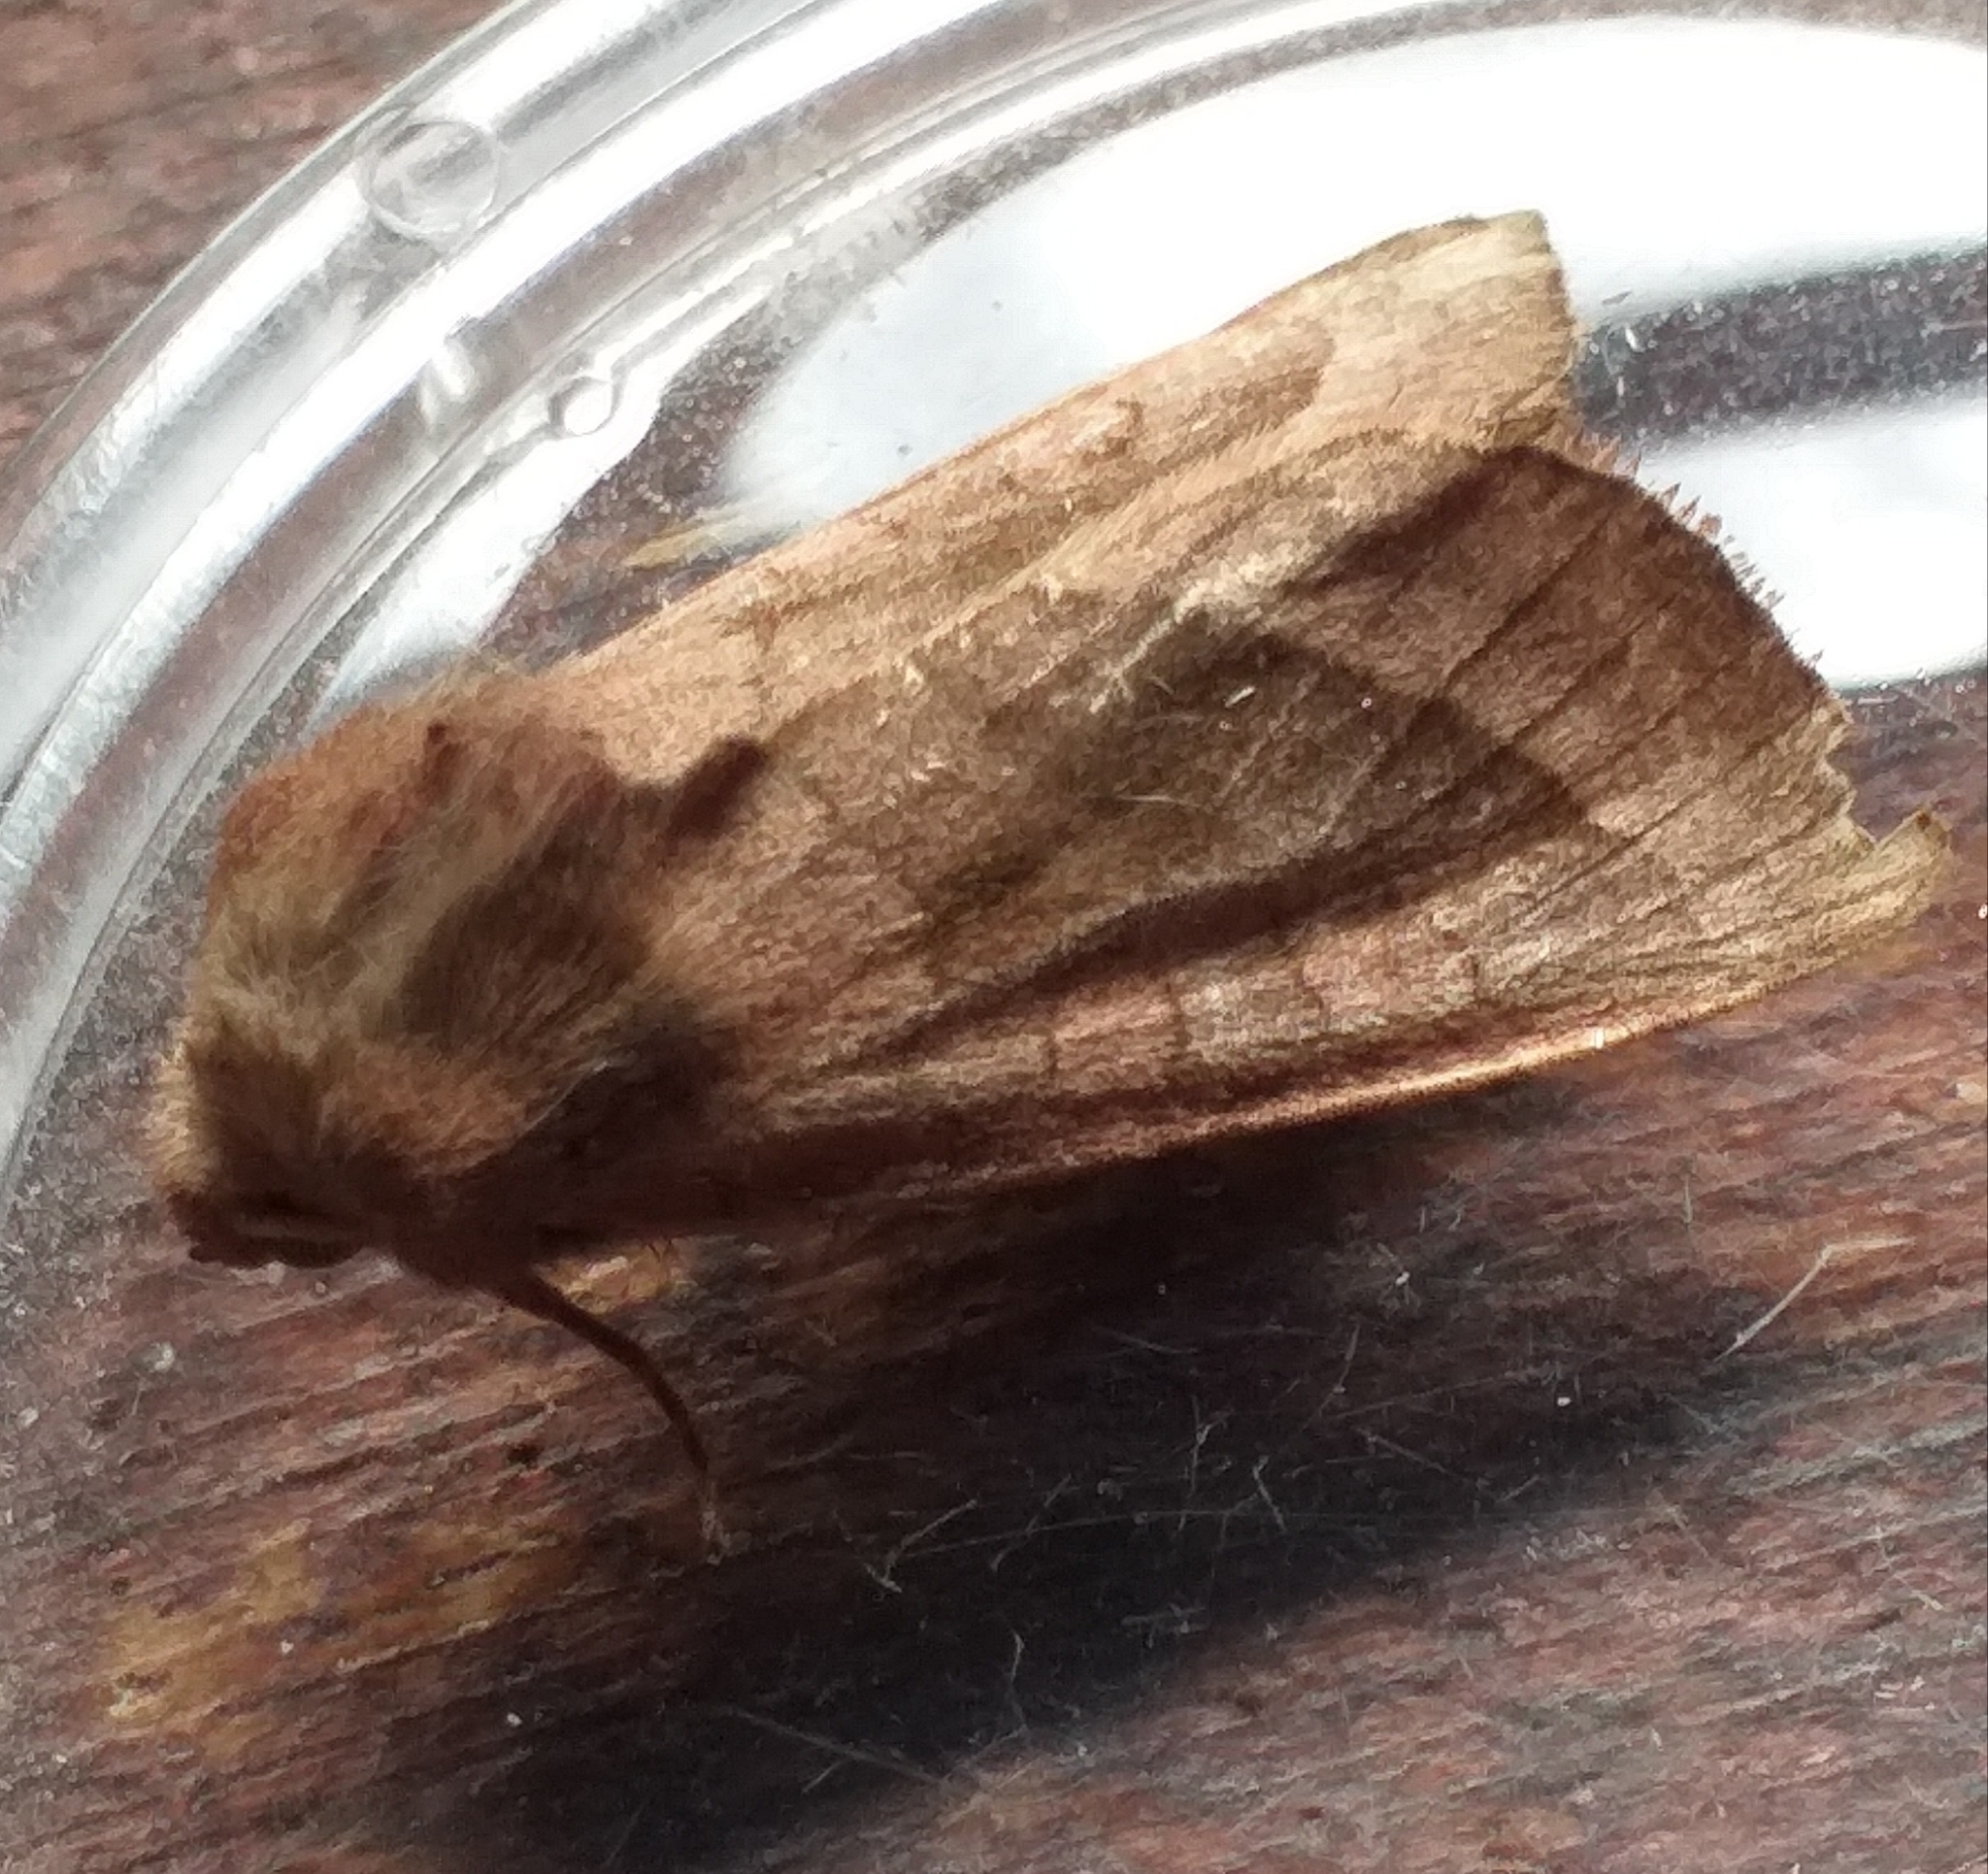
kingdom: Animalia
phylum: Arthropoda
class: Insecta
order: Lepidoptera
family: Noctuidae
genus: Hydraecia
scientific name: Hydraecia micacea
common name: Rosy rustic
